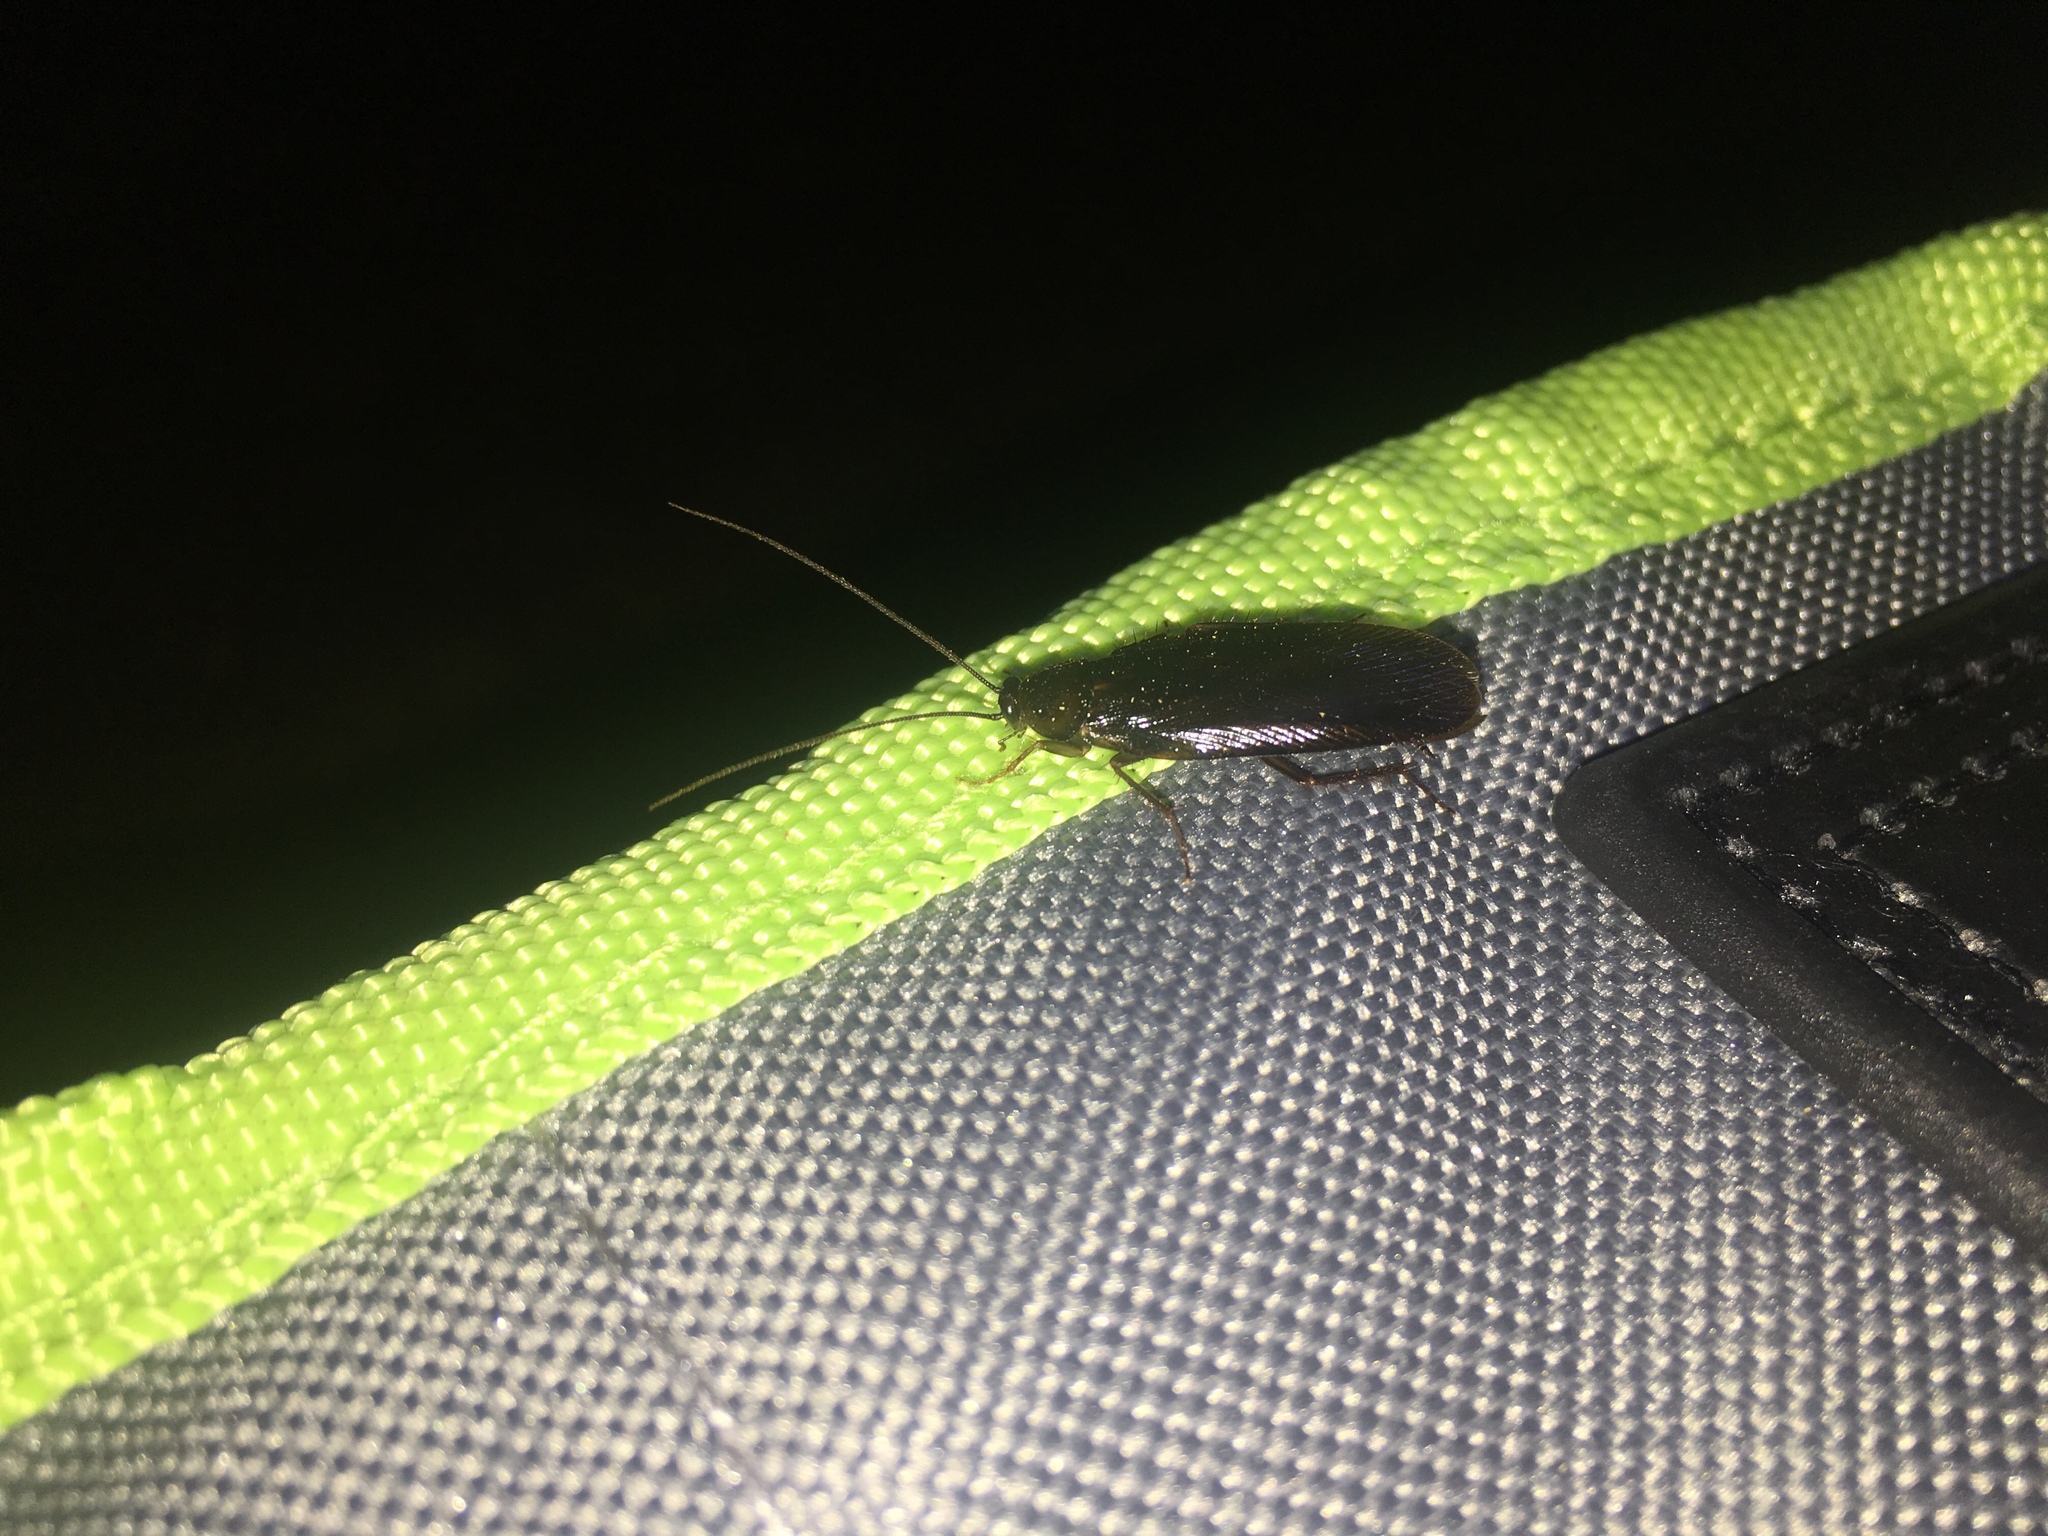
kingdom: Animalia
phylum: Arthropoda
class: Insecta
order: Blattodea
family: Ectobiidae
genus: Parcoblatta
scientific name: Parcoblatta americana
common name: Western wood cockroach
